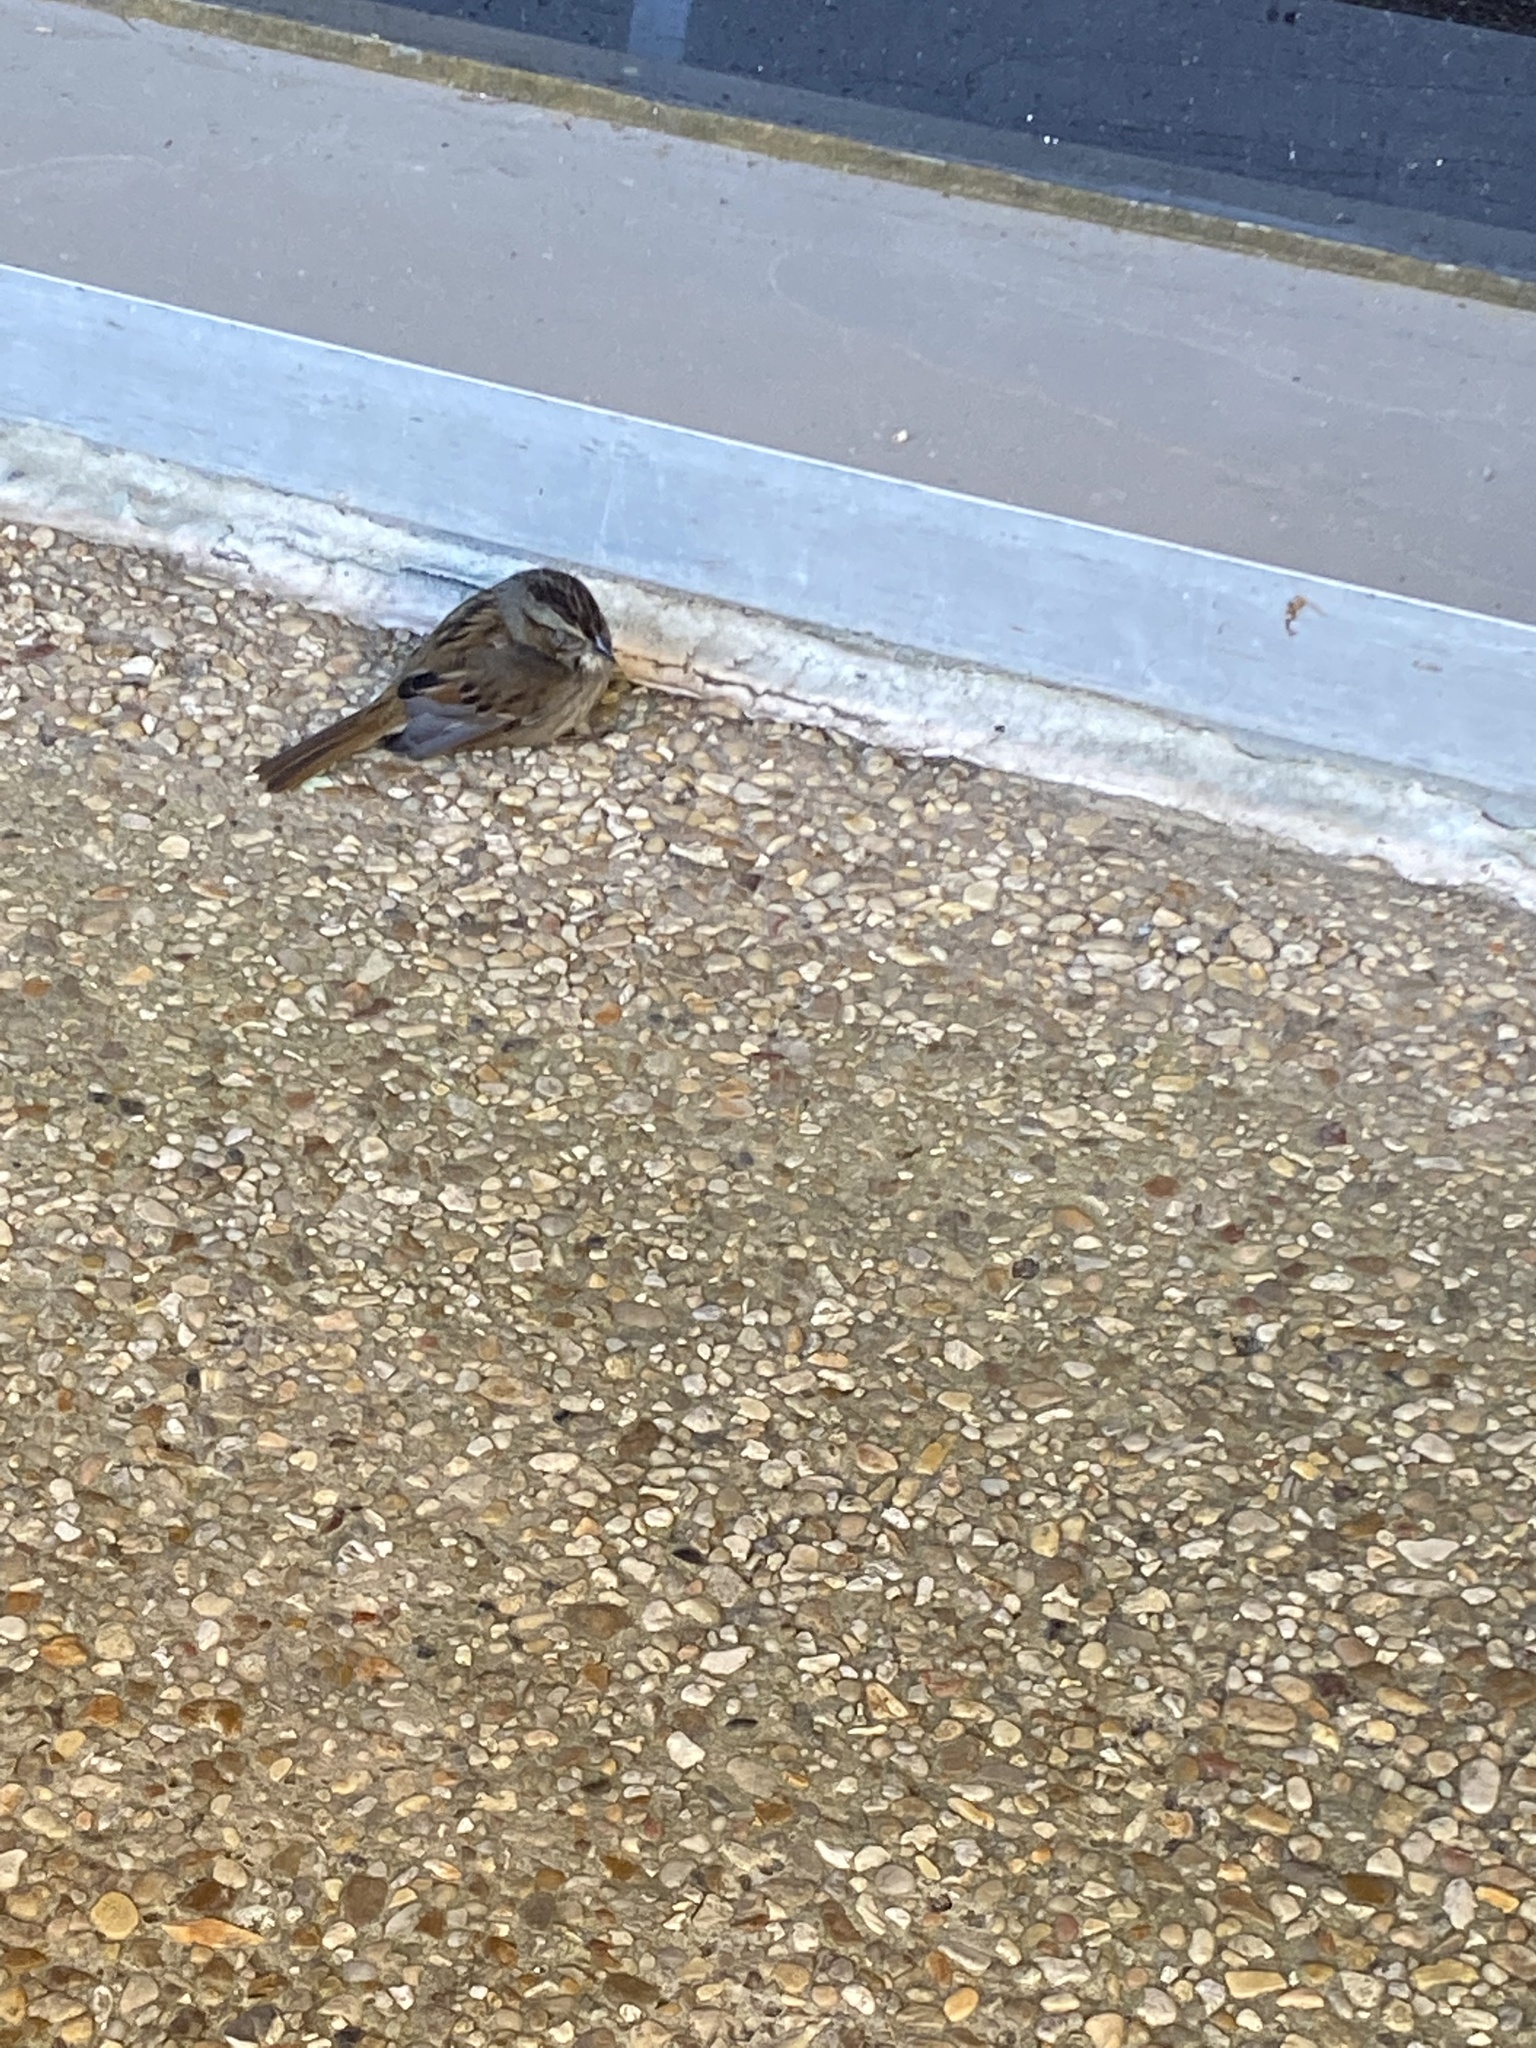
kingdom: Animalia
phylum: Chordata
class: Aves
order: Passeriformes
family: Passerellidae
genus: Melospiza
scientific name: Melospiza georgiana
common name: Swamp sparrow
